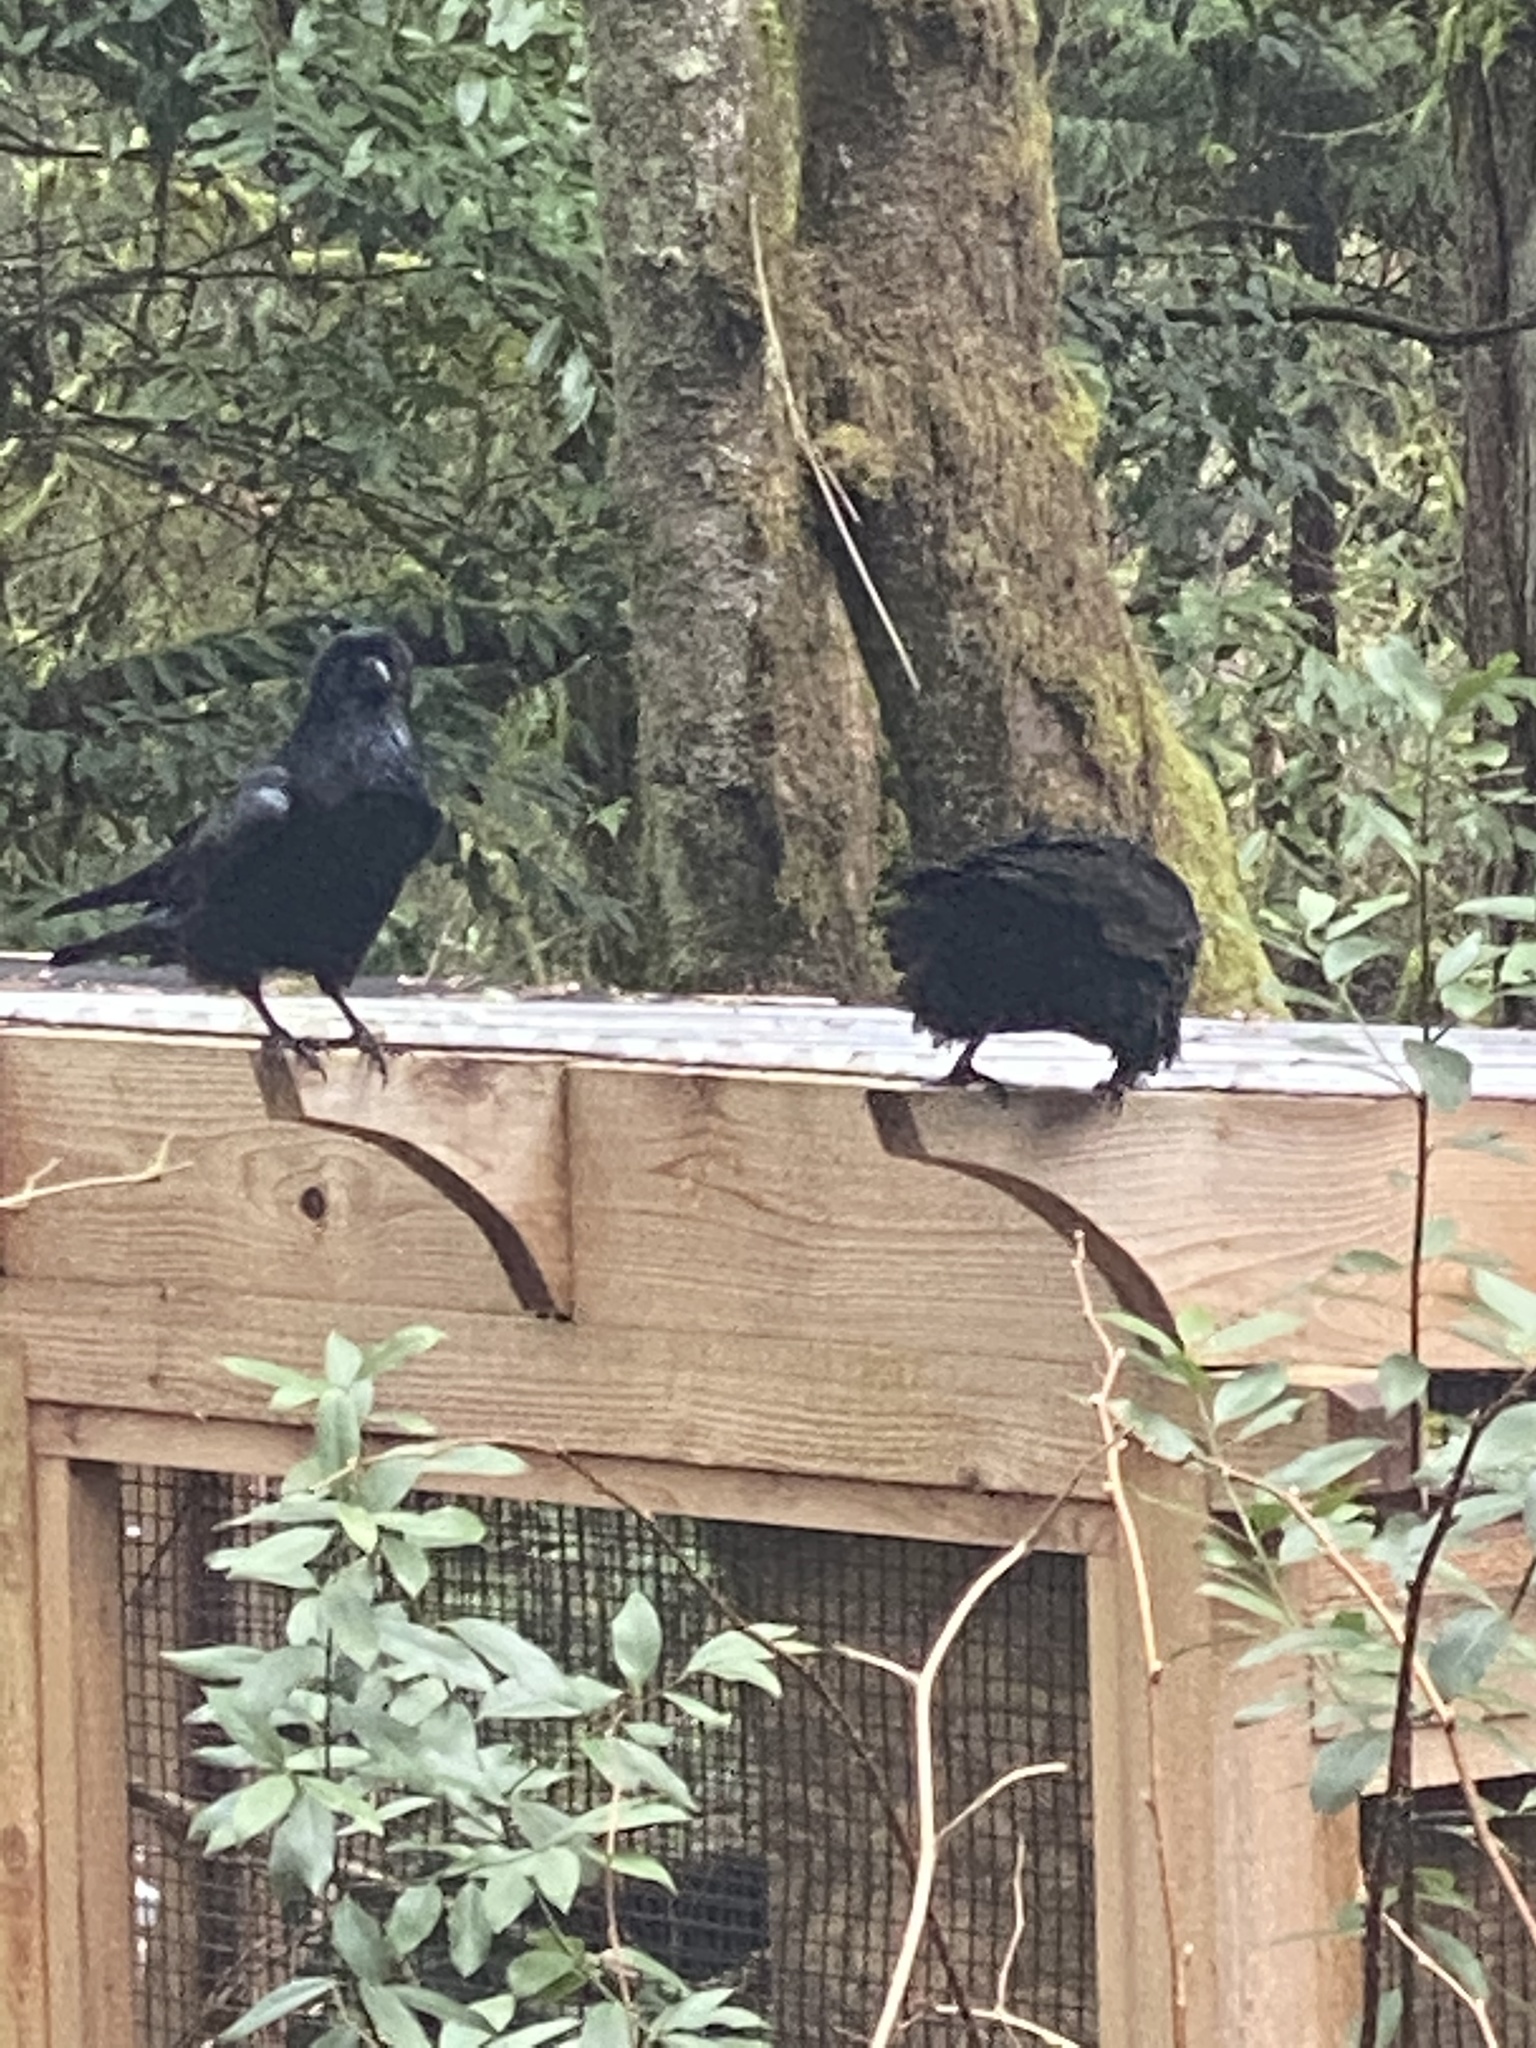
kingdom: Animalia
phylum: Chordata
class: Aves
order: Passeriformes
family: Corvidae
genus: Corvus
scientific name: Corvus corax
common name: Common raven
